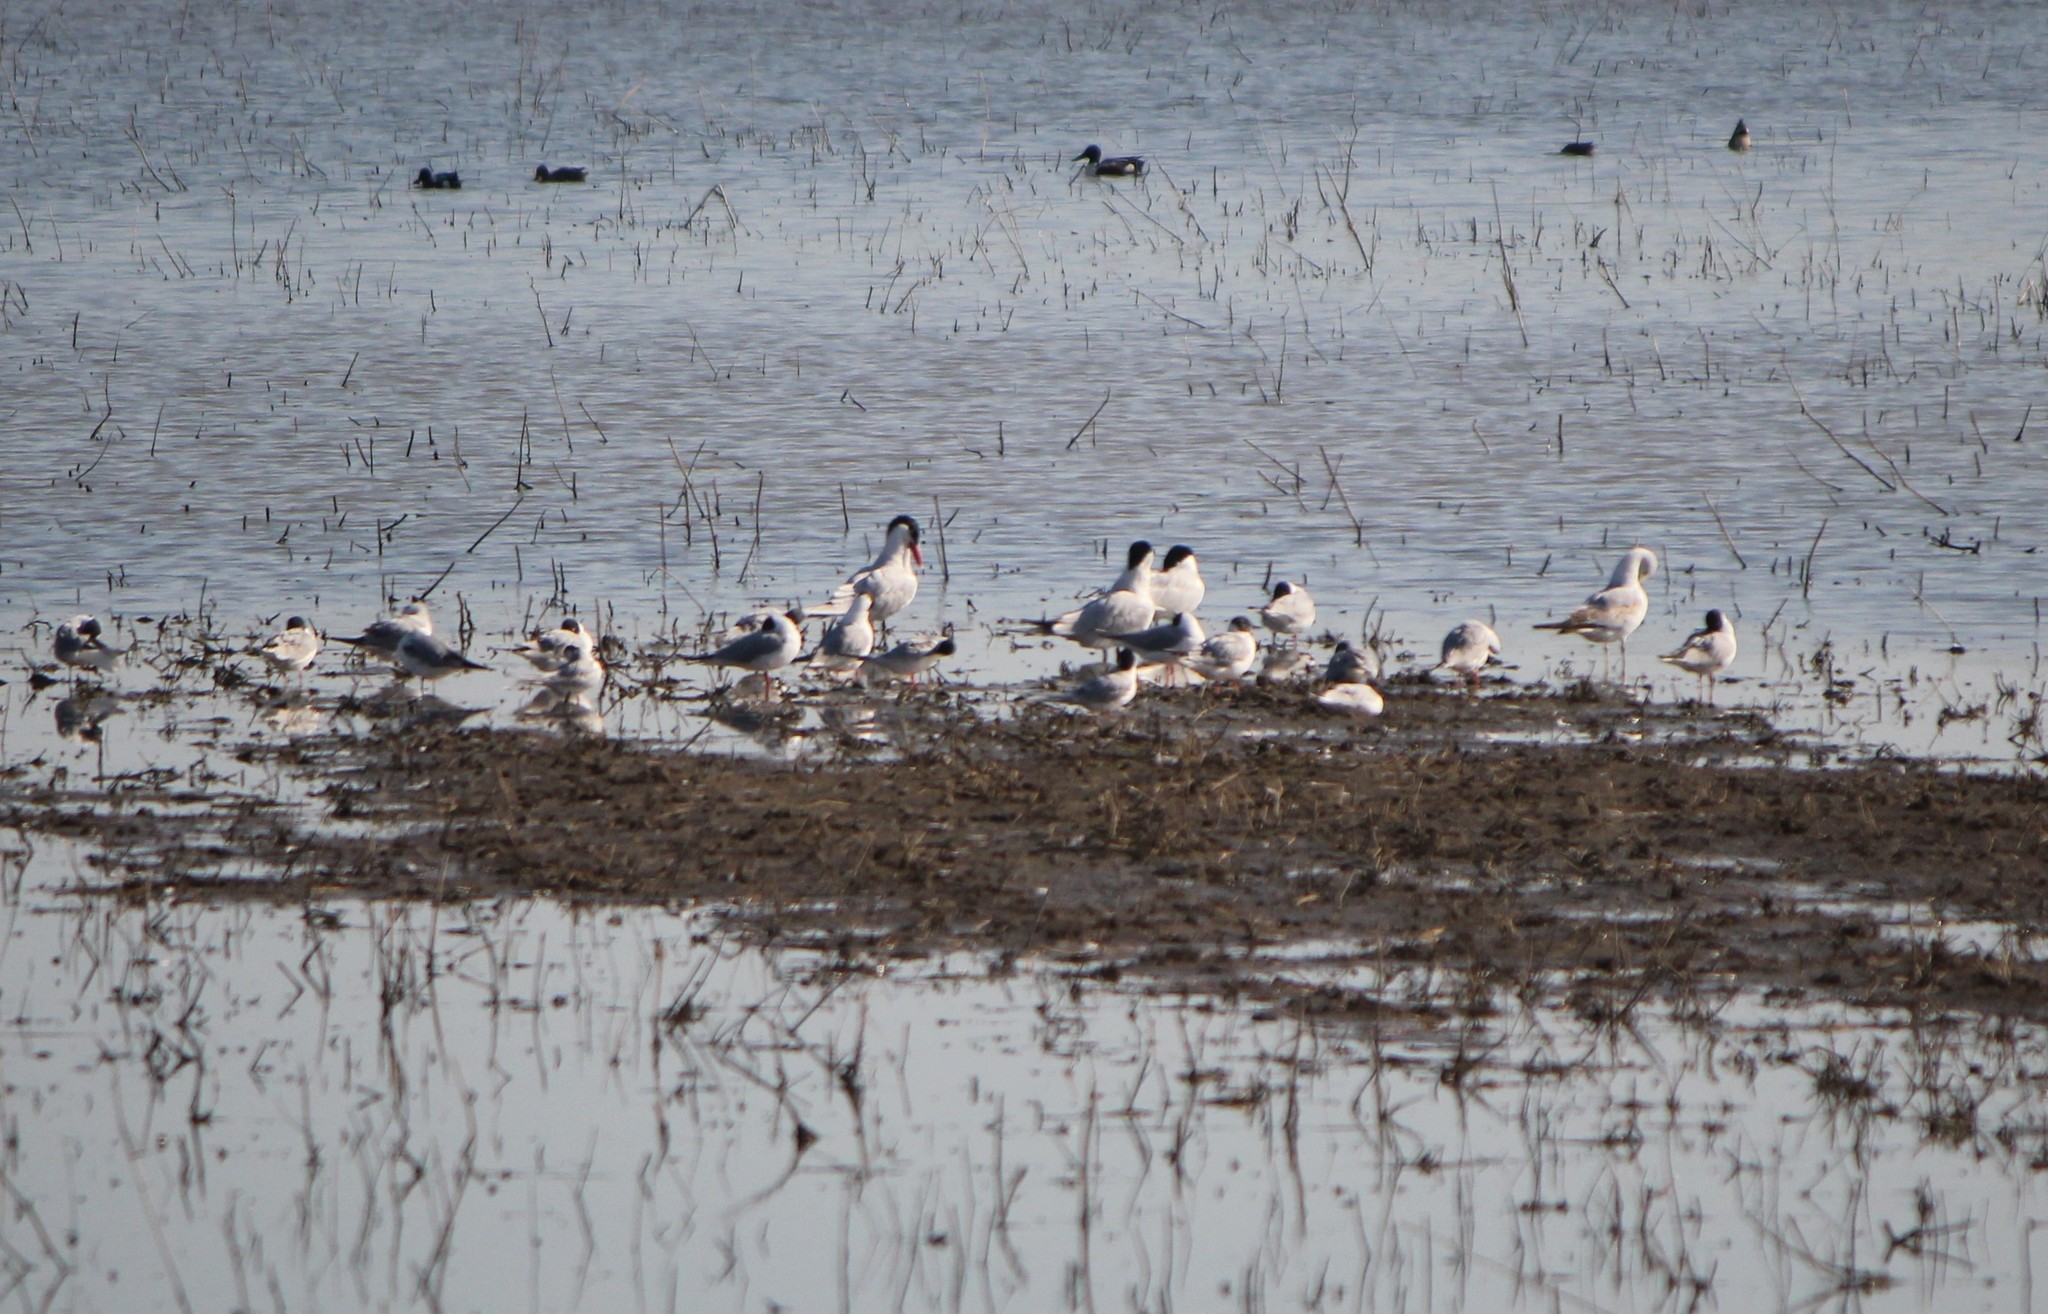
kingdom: Animalia
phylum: Chordata
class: Aves
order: Charadriiformes
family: Laridae
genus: Hydroprogne
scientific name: Hydroprogne caspia
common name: Caspian tern
